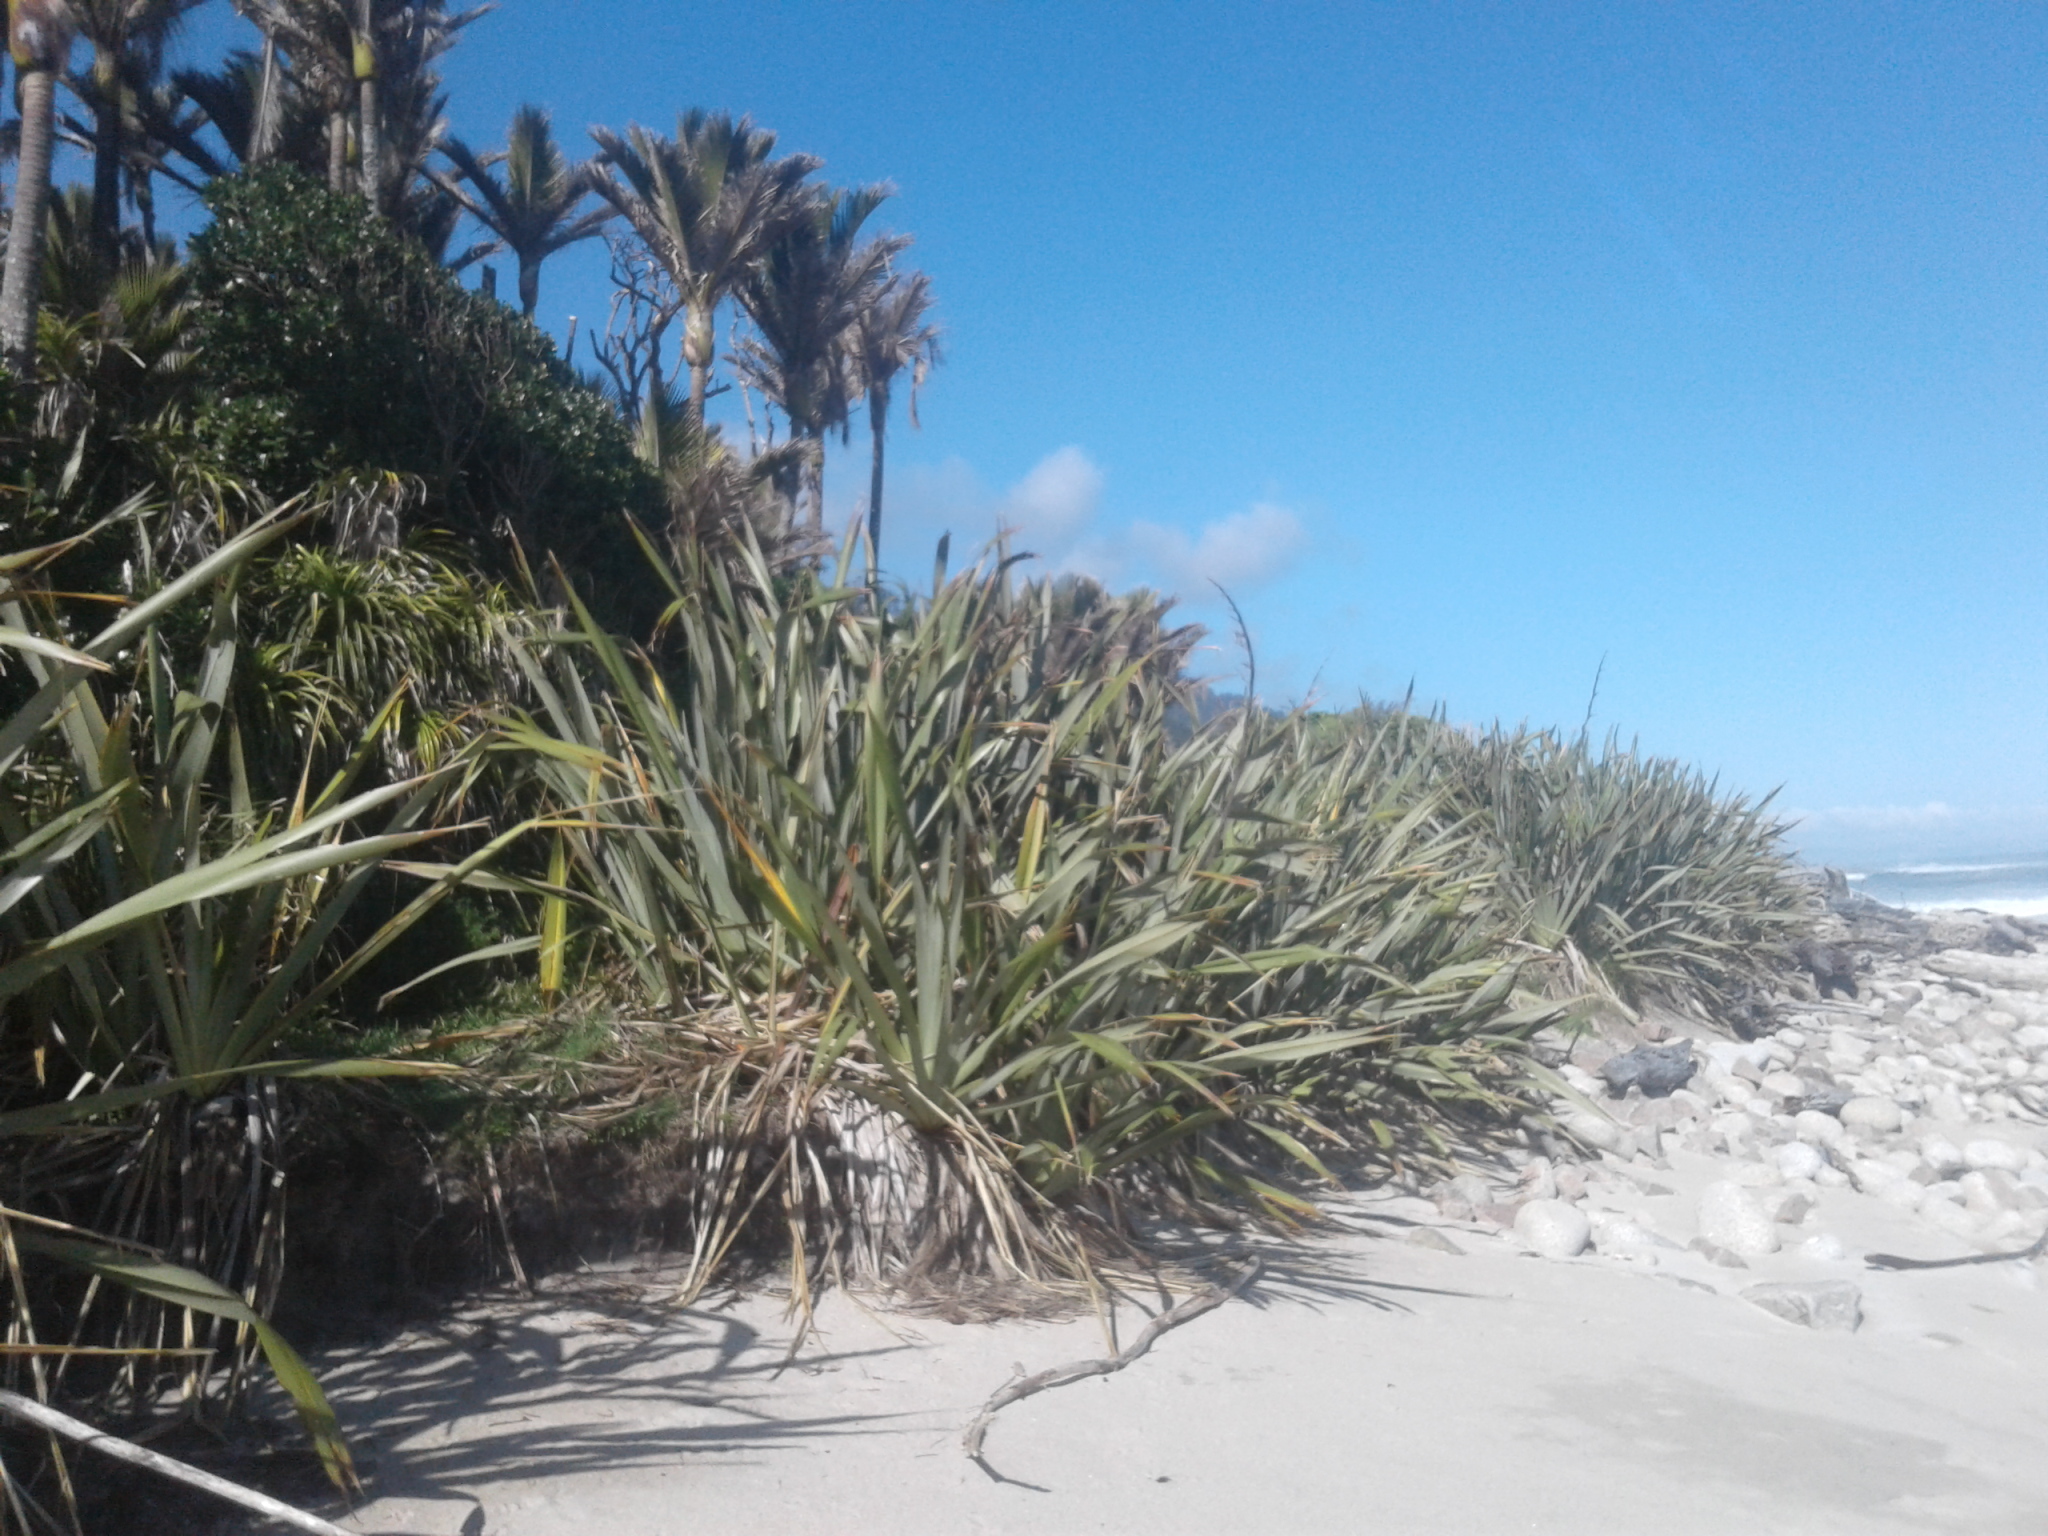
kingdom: Plantae
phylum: Tracheophyta
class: Liliopsida
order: Asparagales
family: Asphodelaceae
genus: Phormium
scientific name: Phormium tenax
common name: New zealand flax
